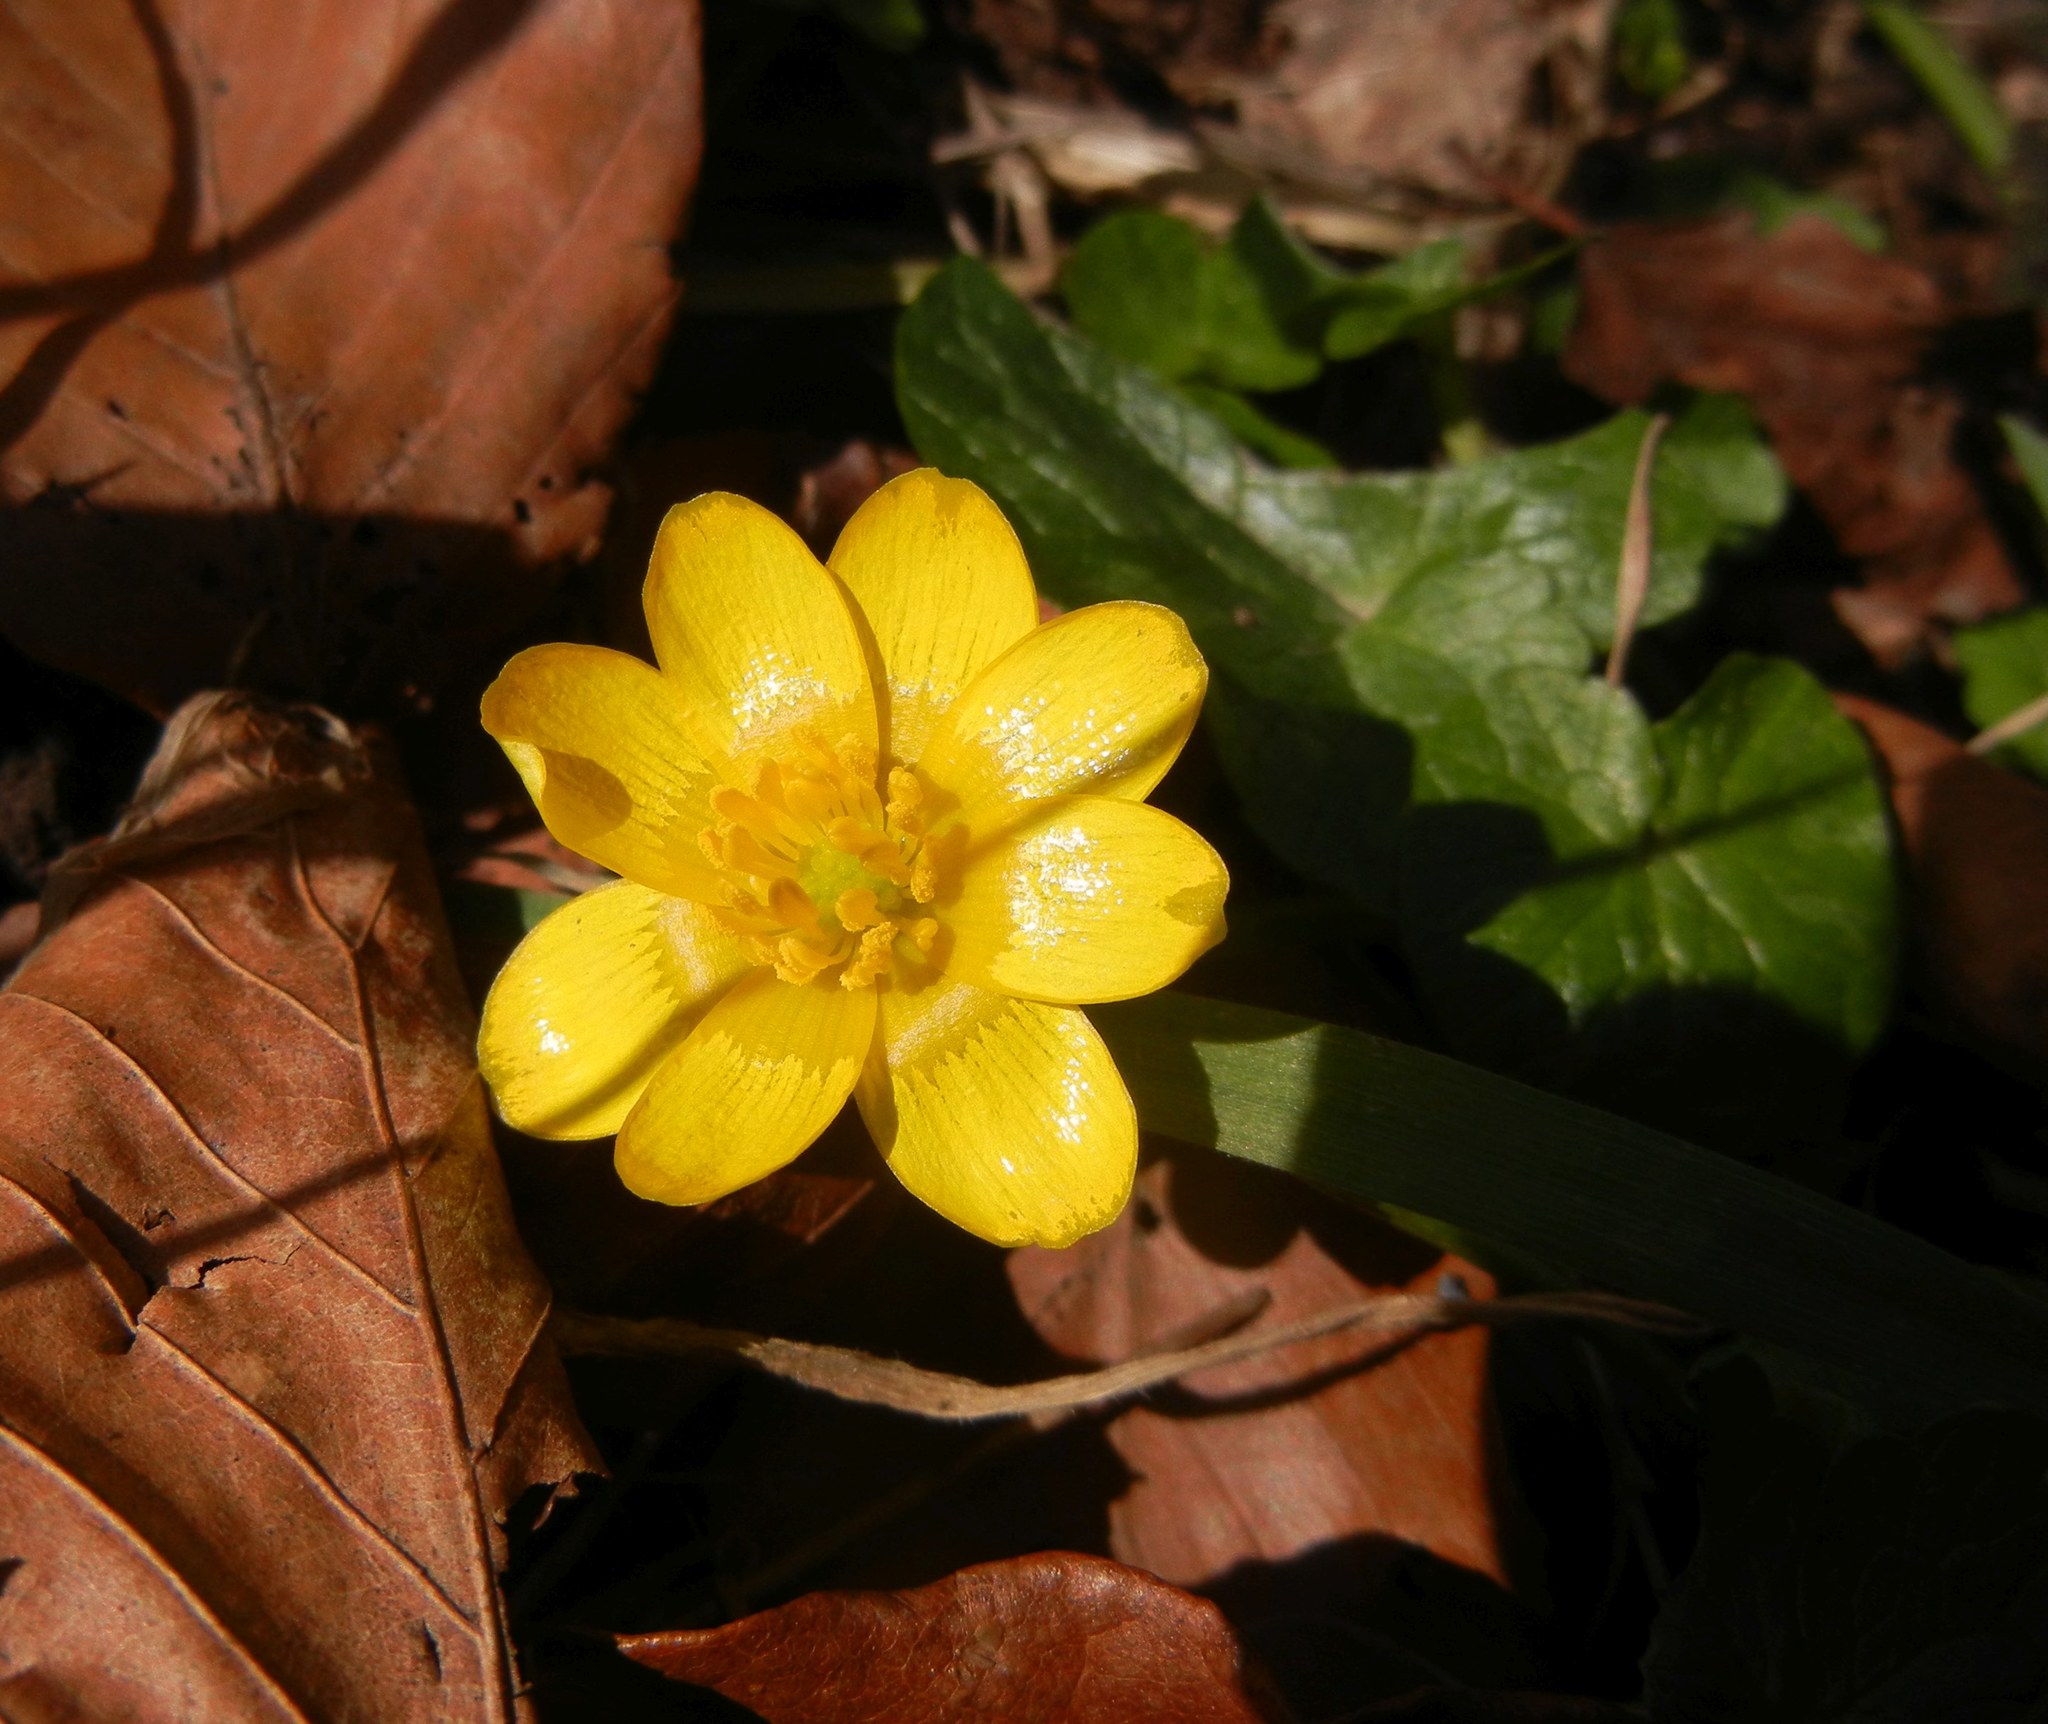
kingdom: Plantae
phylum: Tracheophyta
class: Magnoliopsida
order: Ranunculales
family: Ranunculaceae
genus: Ficaria
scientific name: Ficaria verna
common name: Lesser celandine
